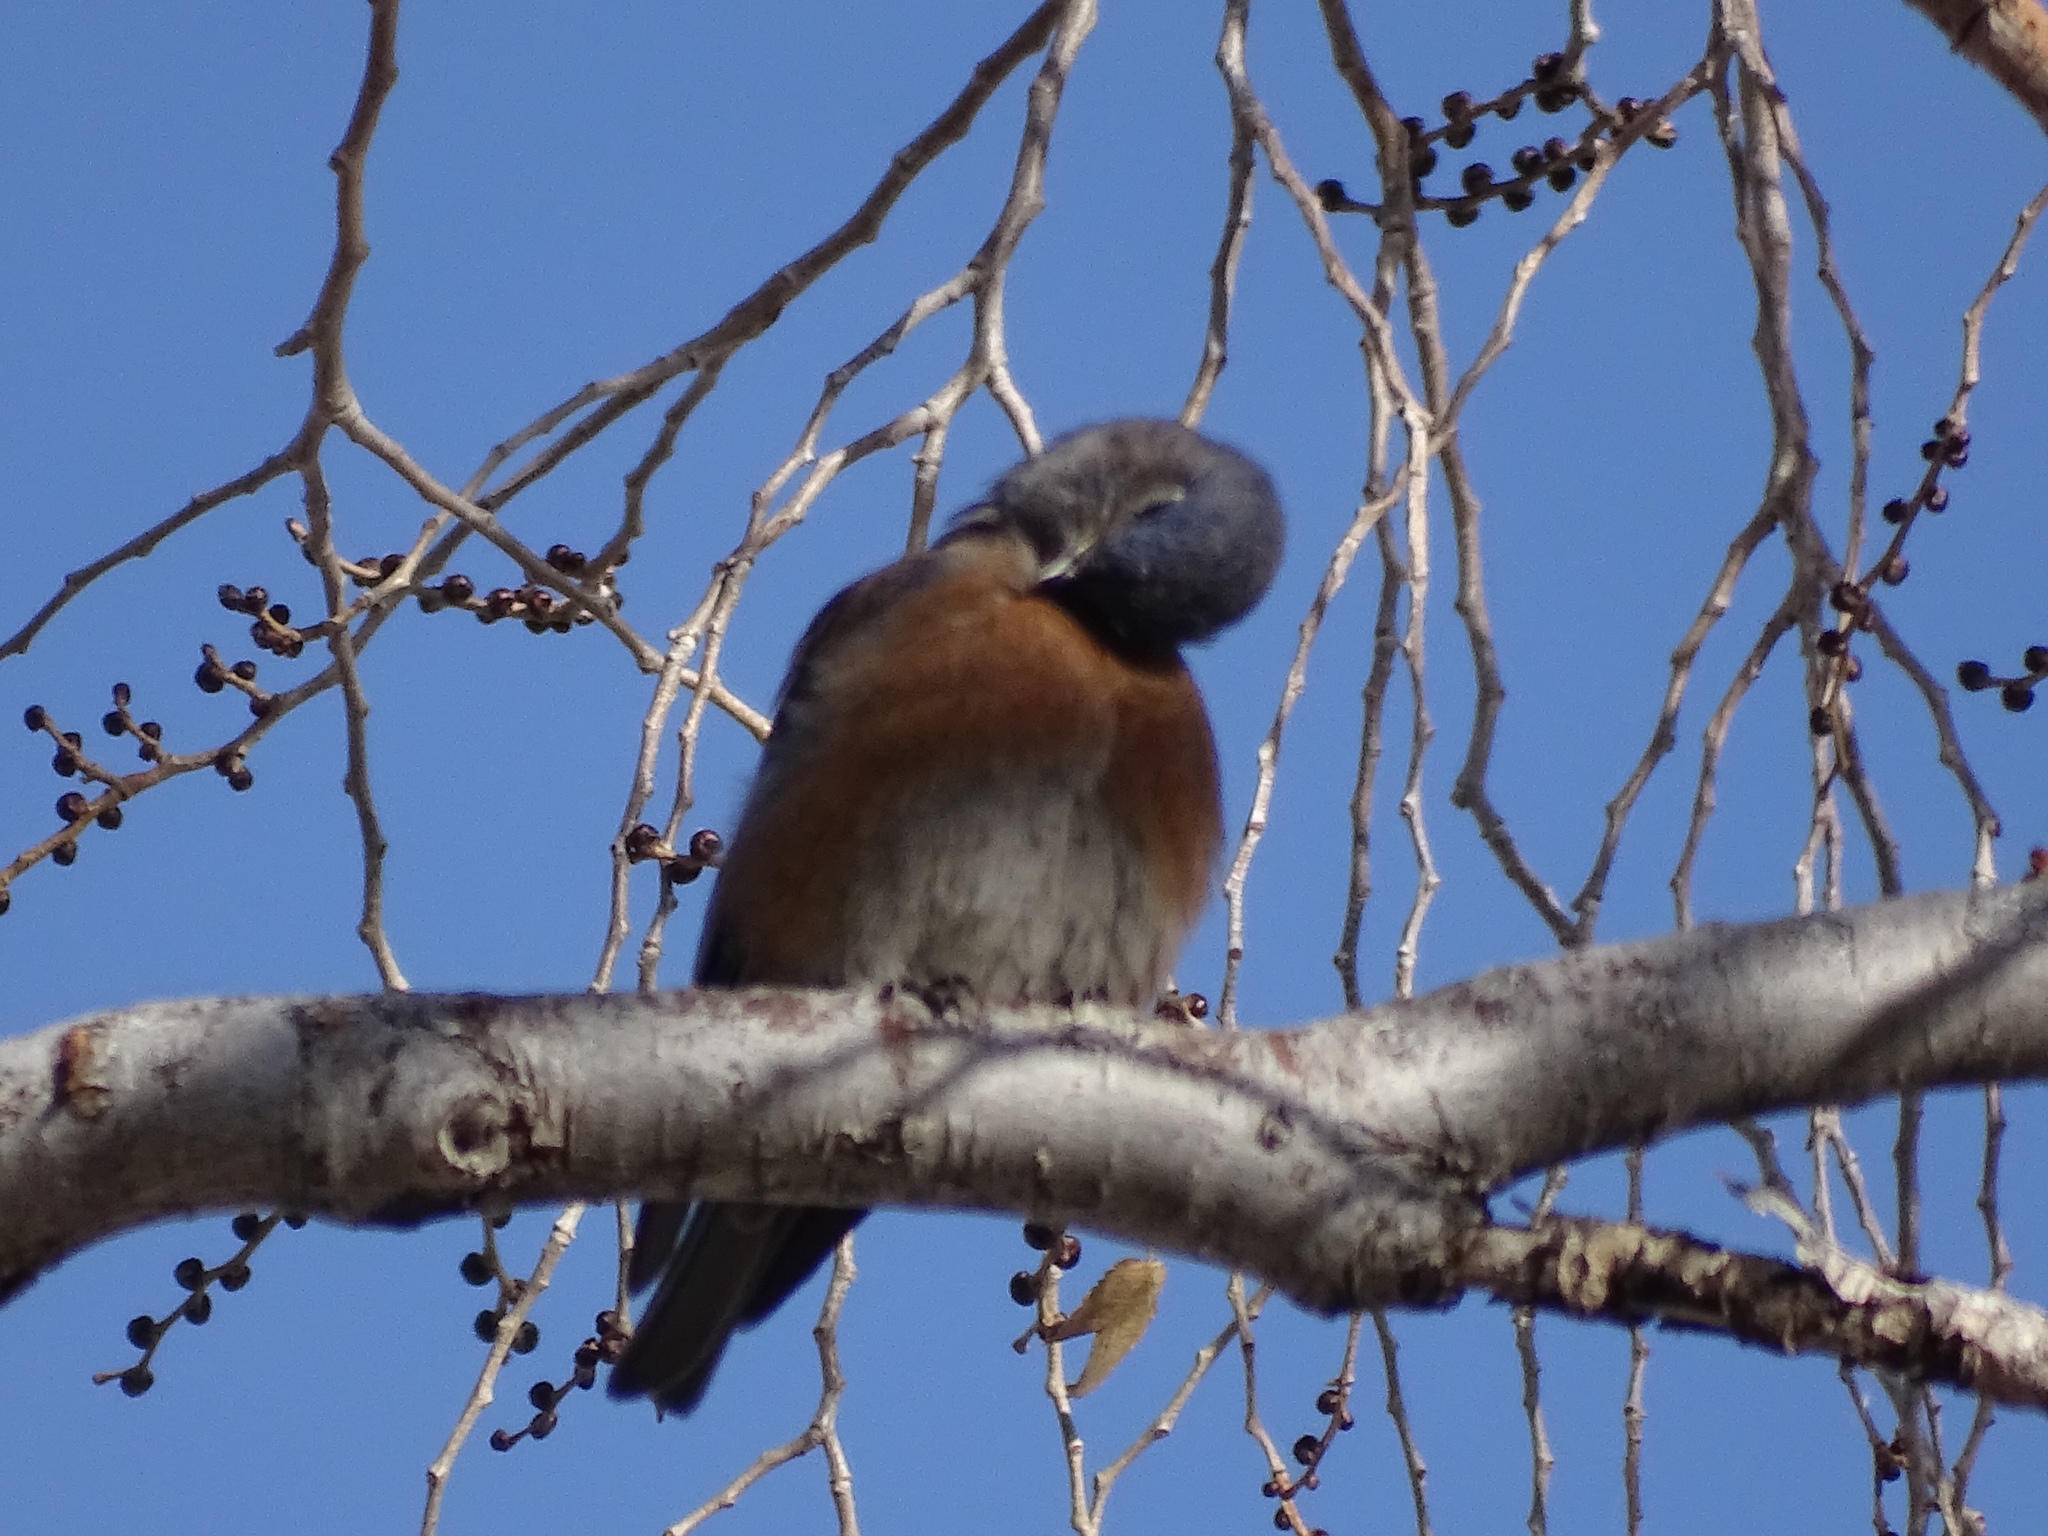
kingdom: Animalia
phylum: Chordata
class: Aves
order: Passeriformes
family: Turdidae
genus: Sialia
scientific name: Sialia mexicana
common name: Western bluebird
